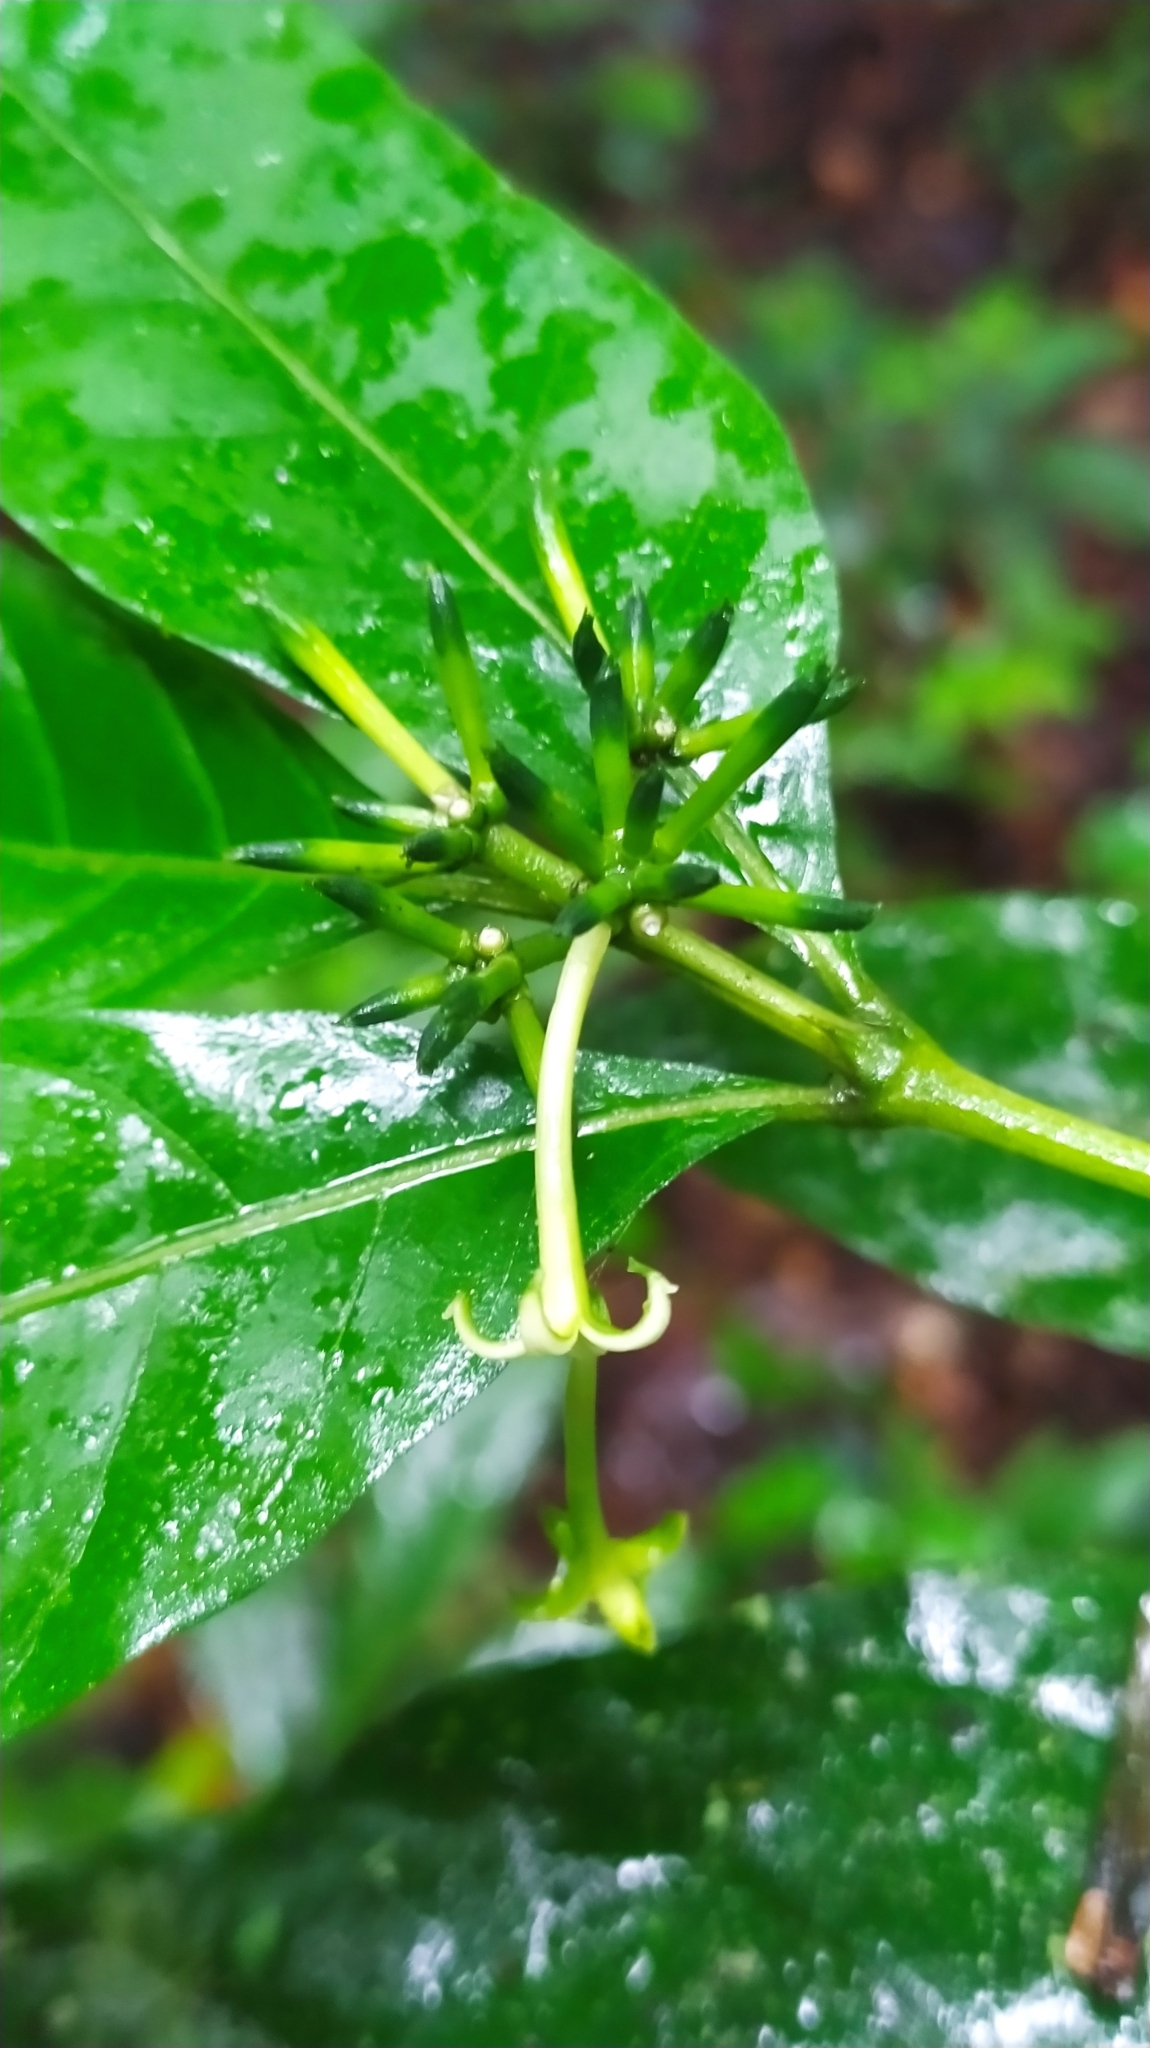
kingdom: Plantae
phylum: Tracheophyta
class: Magnoliopsida
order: Gentianales
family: Rubiaceae
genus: Appunia
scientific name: Appunia morindoides
